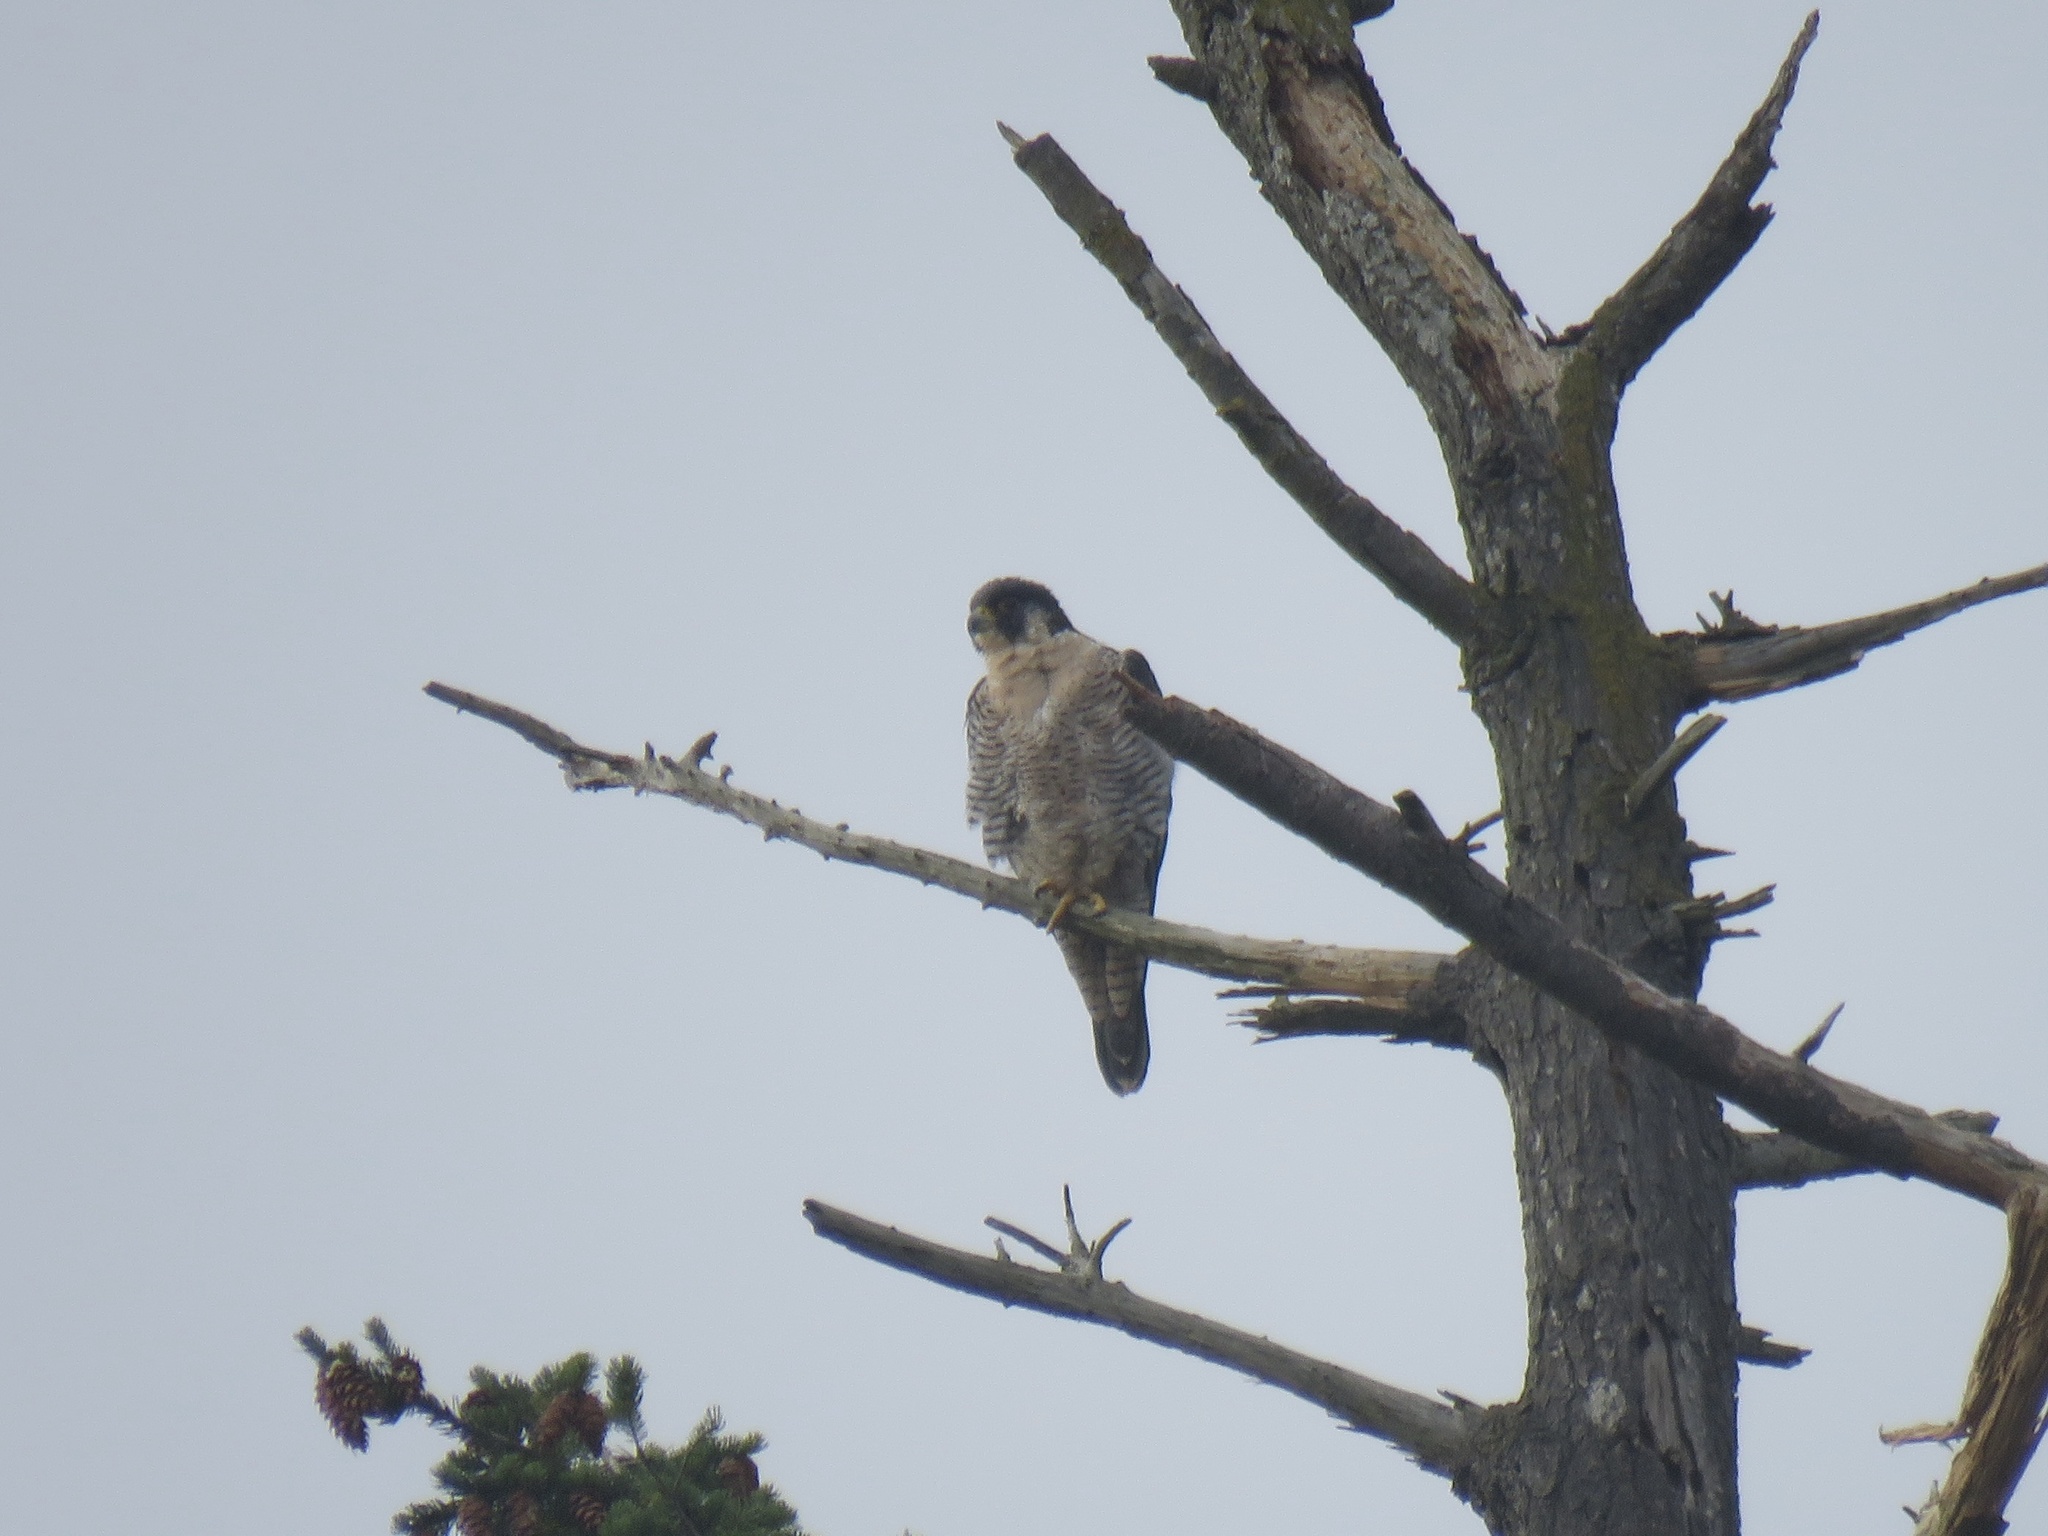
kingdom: Animalia
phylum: Chordata
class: Aves
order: Falconiformes
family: Falconidae
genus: Falco
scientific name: Falco peregrinus
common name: Peregrine falcon
